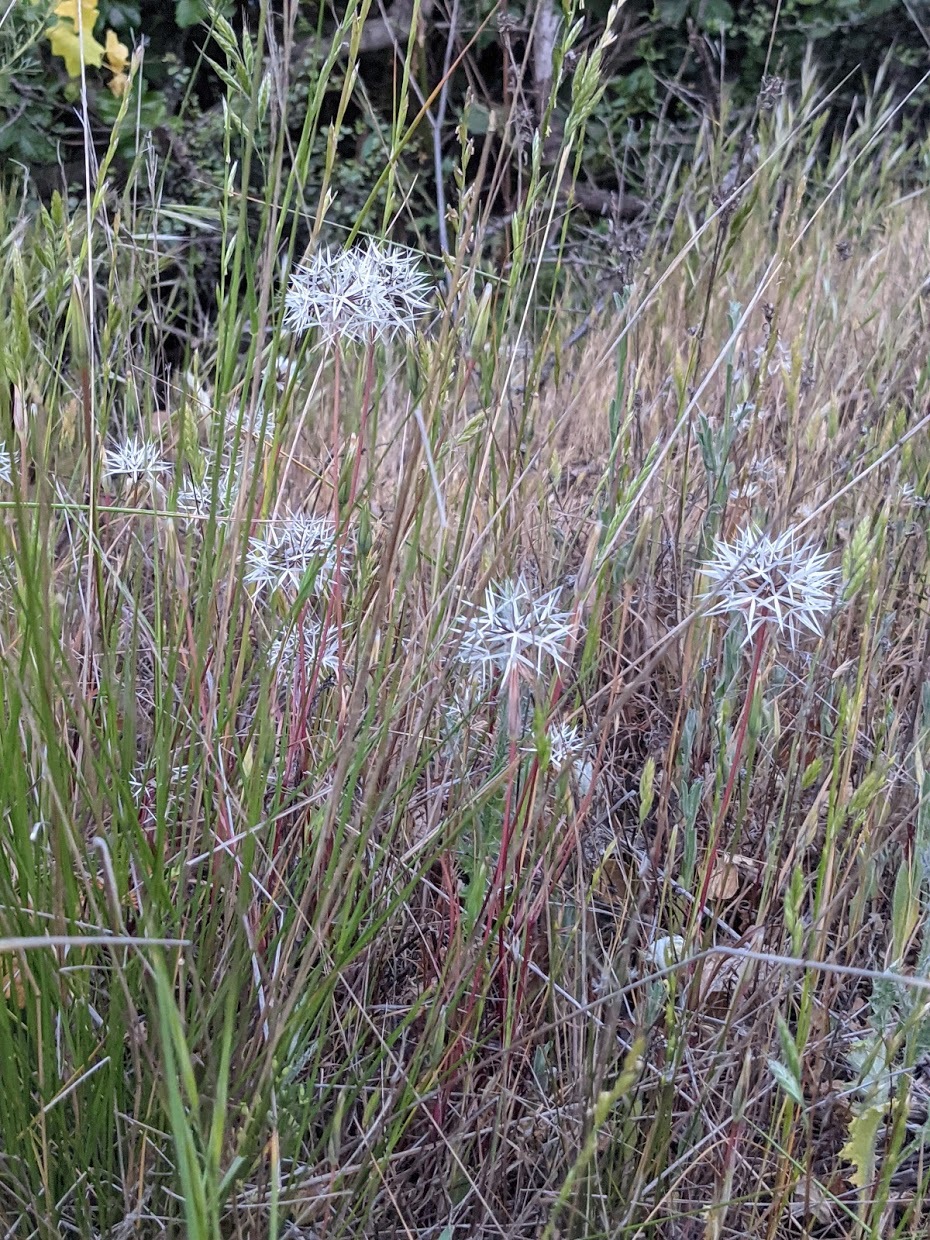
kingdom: Plantae
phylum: Tracheophyta
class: Magnoliopsida
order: Asterales
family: Asteraceae
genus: Microseris
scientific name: Microseris lindleyi
